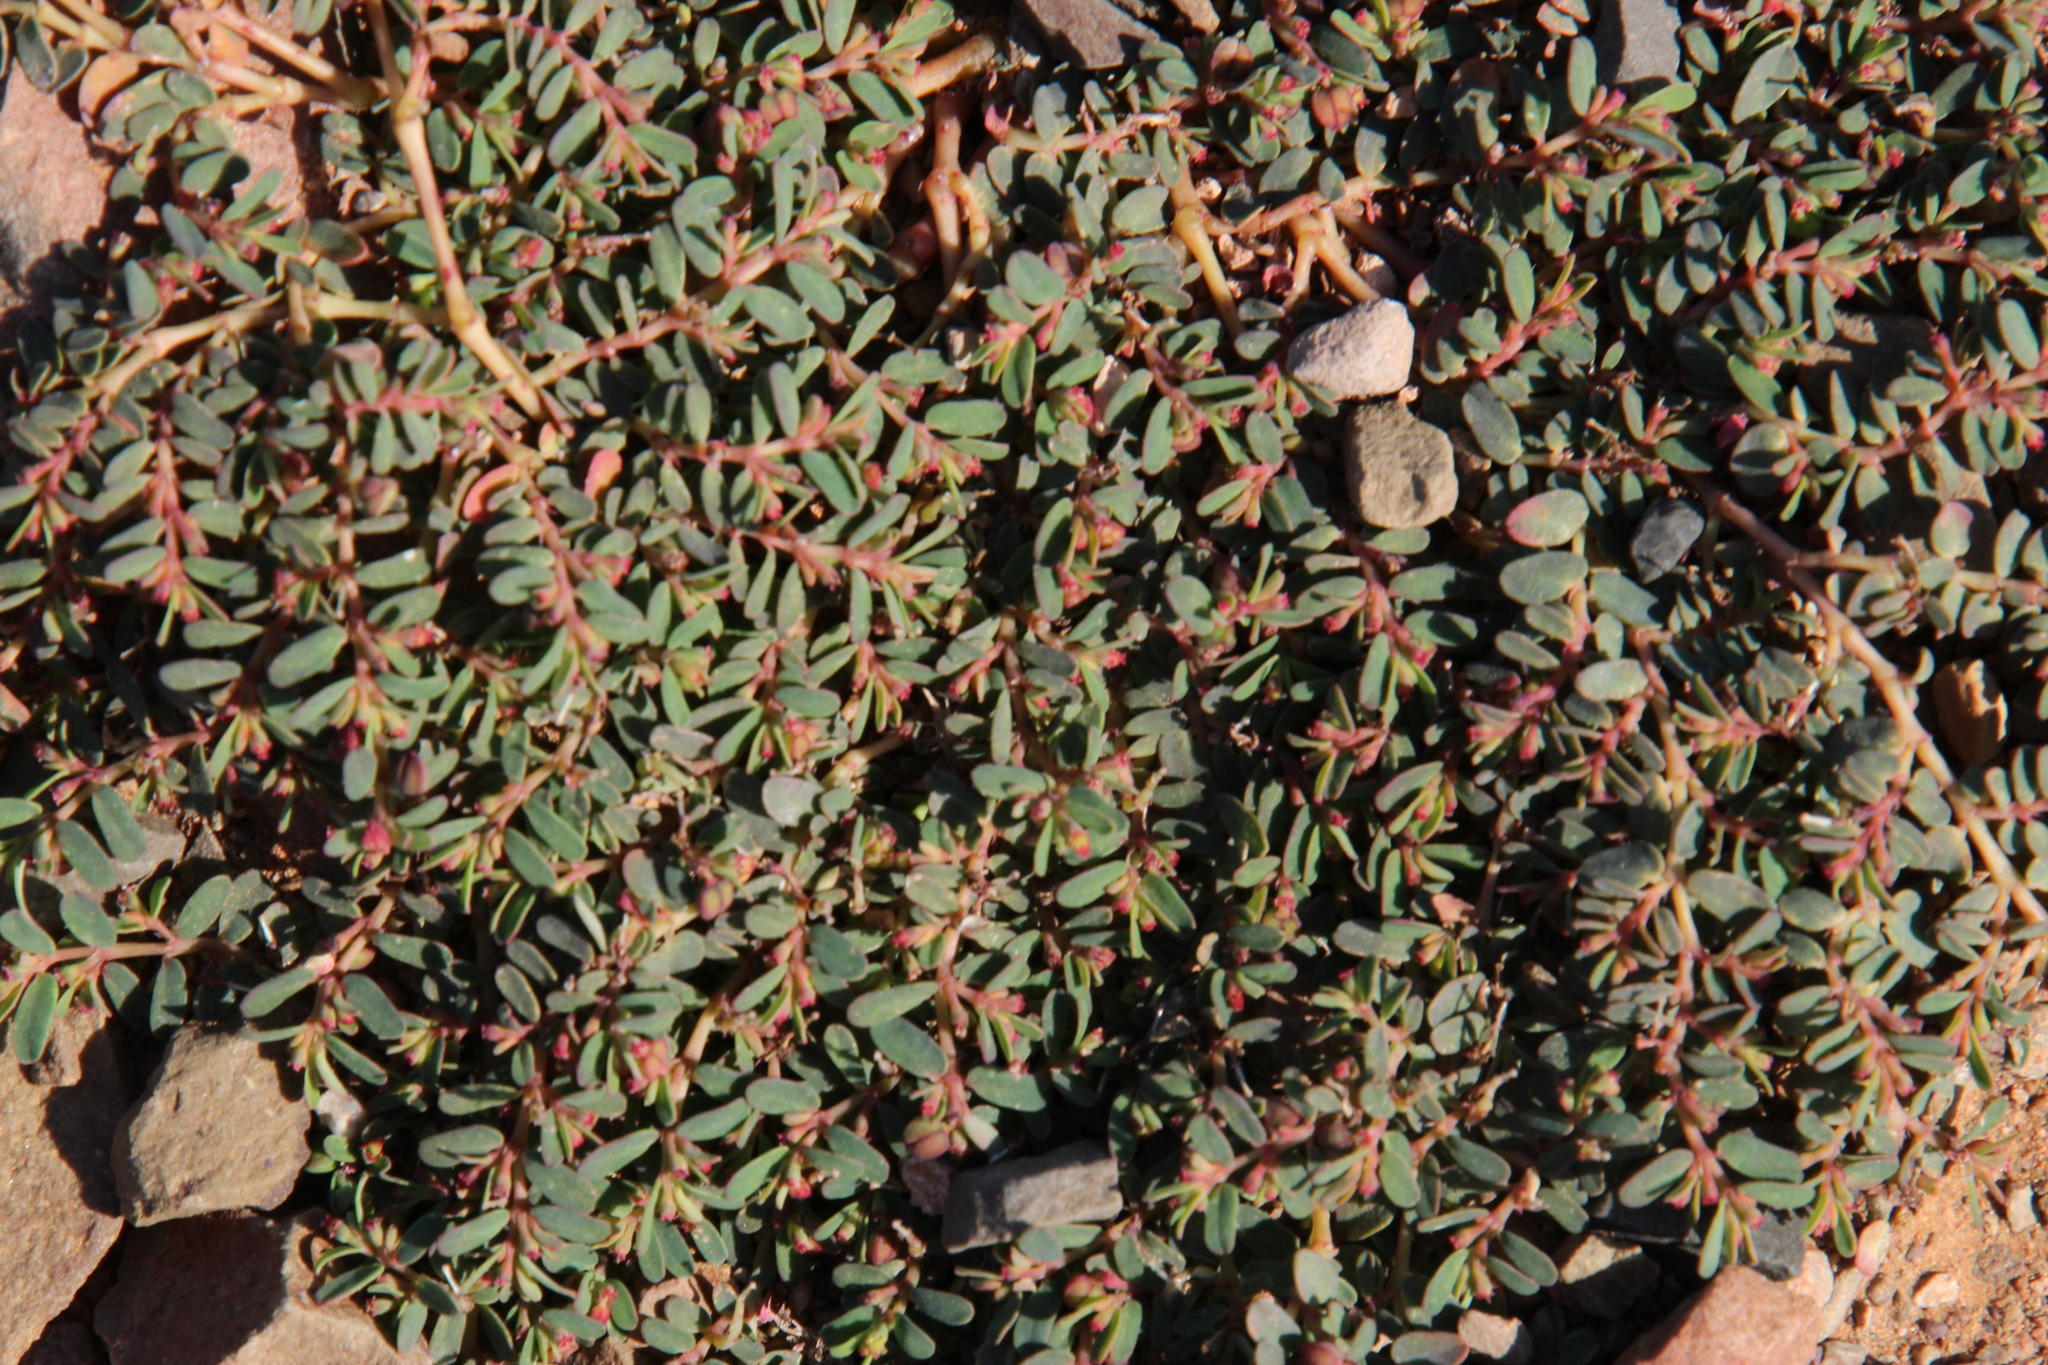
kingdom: Plantae
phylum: Tracheophyta
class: Magnoliopsida
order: Malpighiales
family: Euphorbiaceae
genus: Euphorbia
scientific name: Euphorbia inaequilatera
